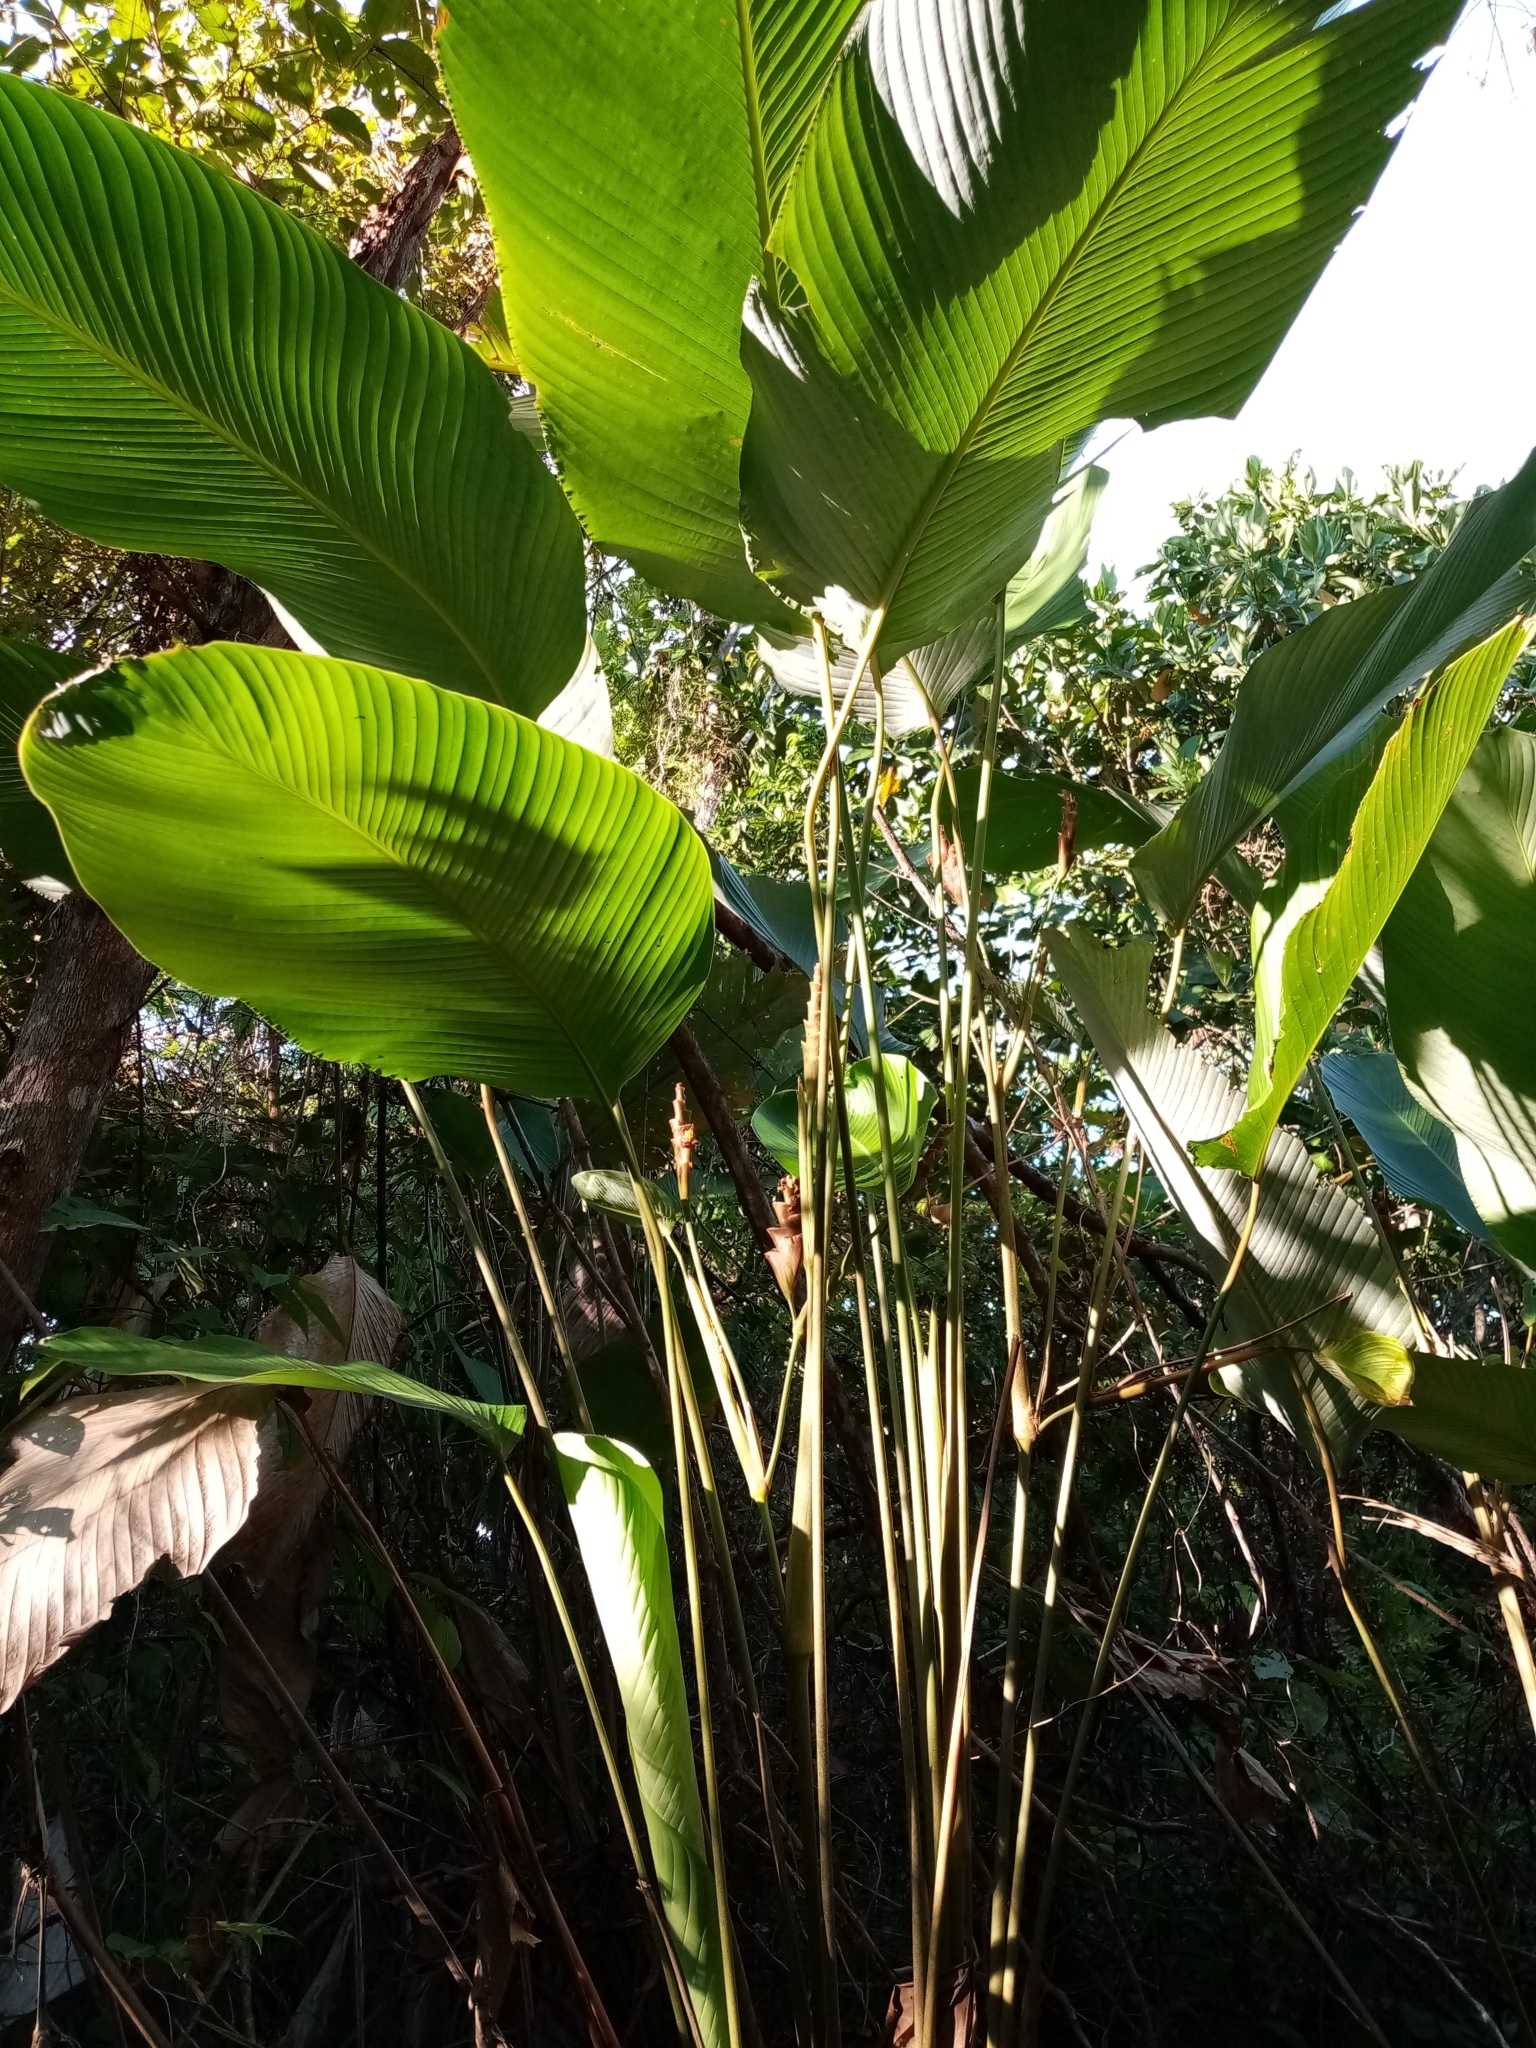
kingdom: Plantae
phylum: Tracheophyta
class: Liliopsida
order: Zingiberales
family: Marantaceae
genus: Calathea
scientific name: Calathea lutea
